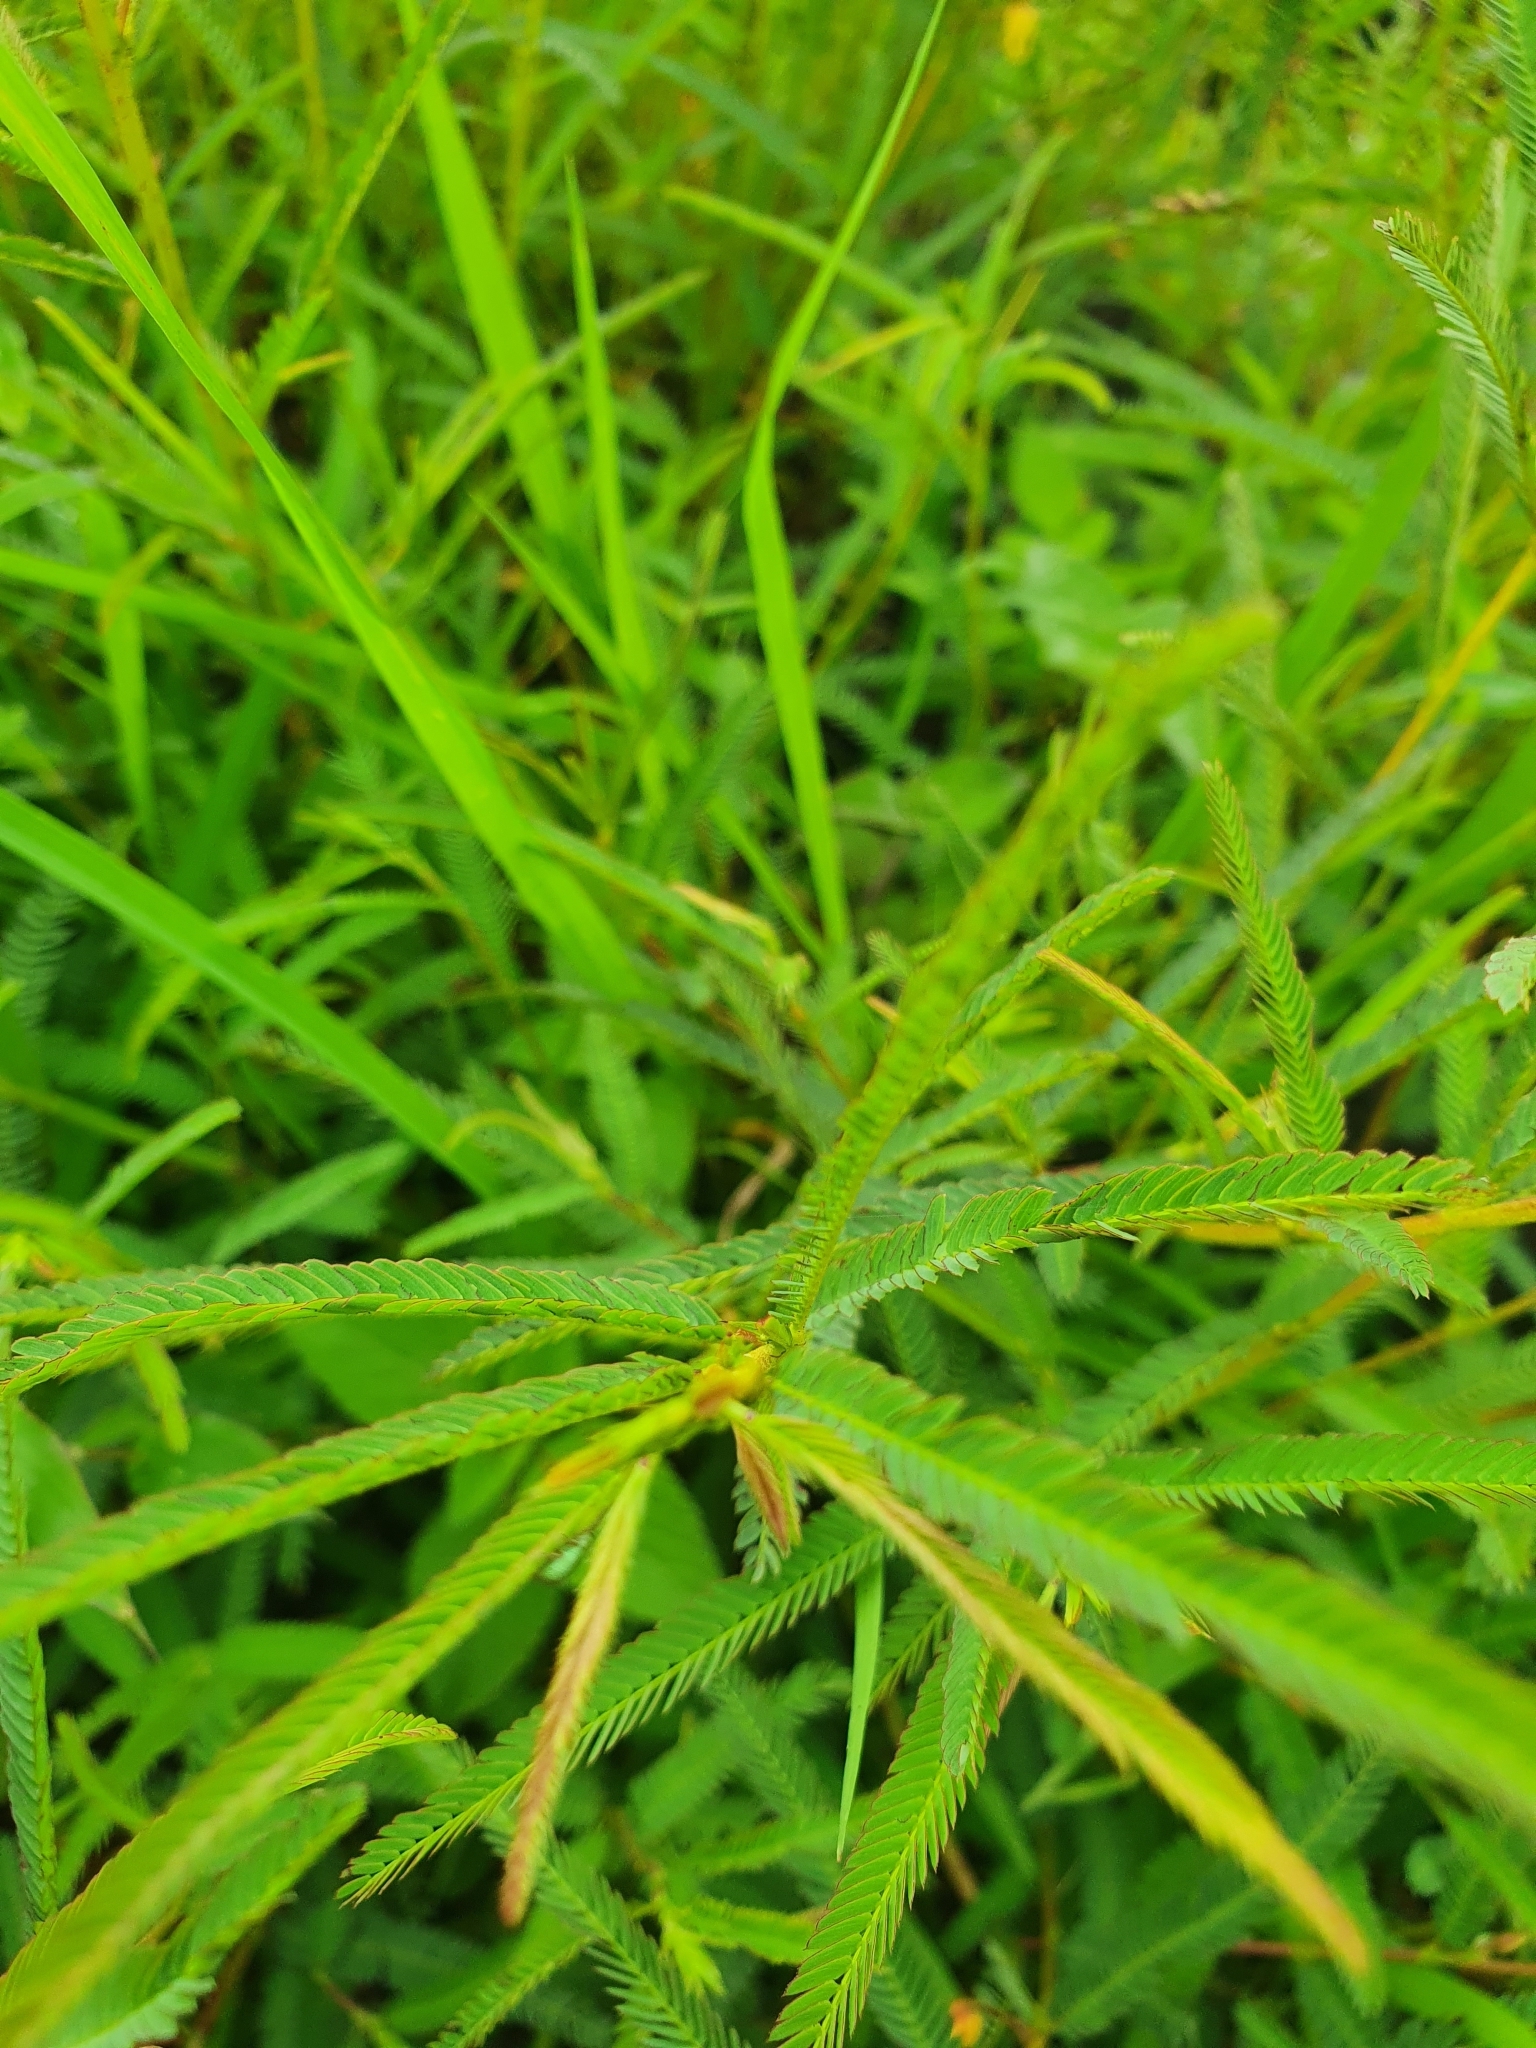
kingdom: Plantae
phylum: Tracheophyta
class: Magnoliopsida
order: Fabales
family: Fabaceae
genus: Chamaecrista
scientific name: Chamaecrista mimosoides
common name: Fish-bone cassia
